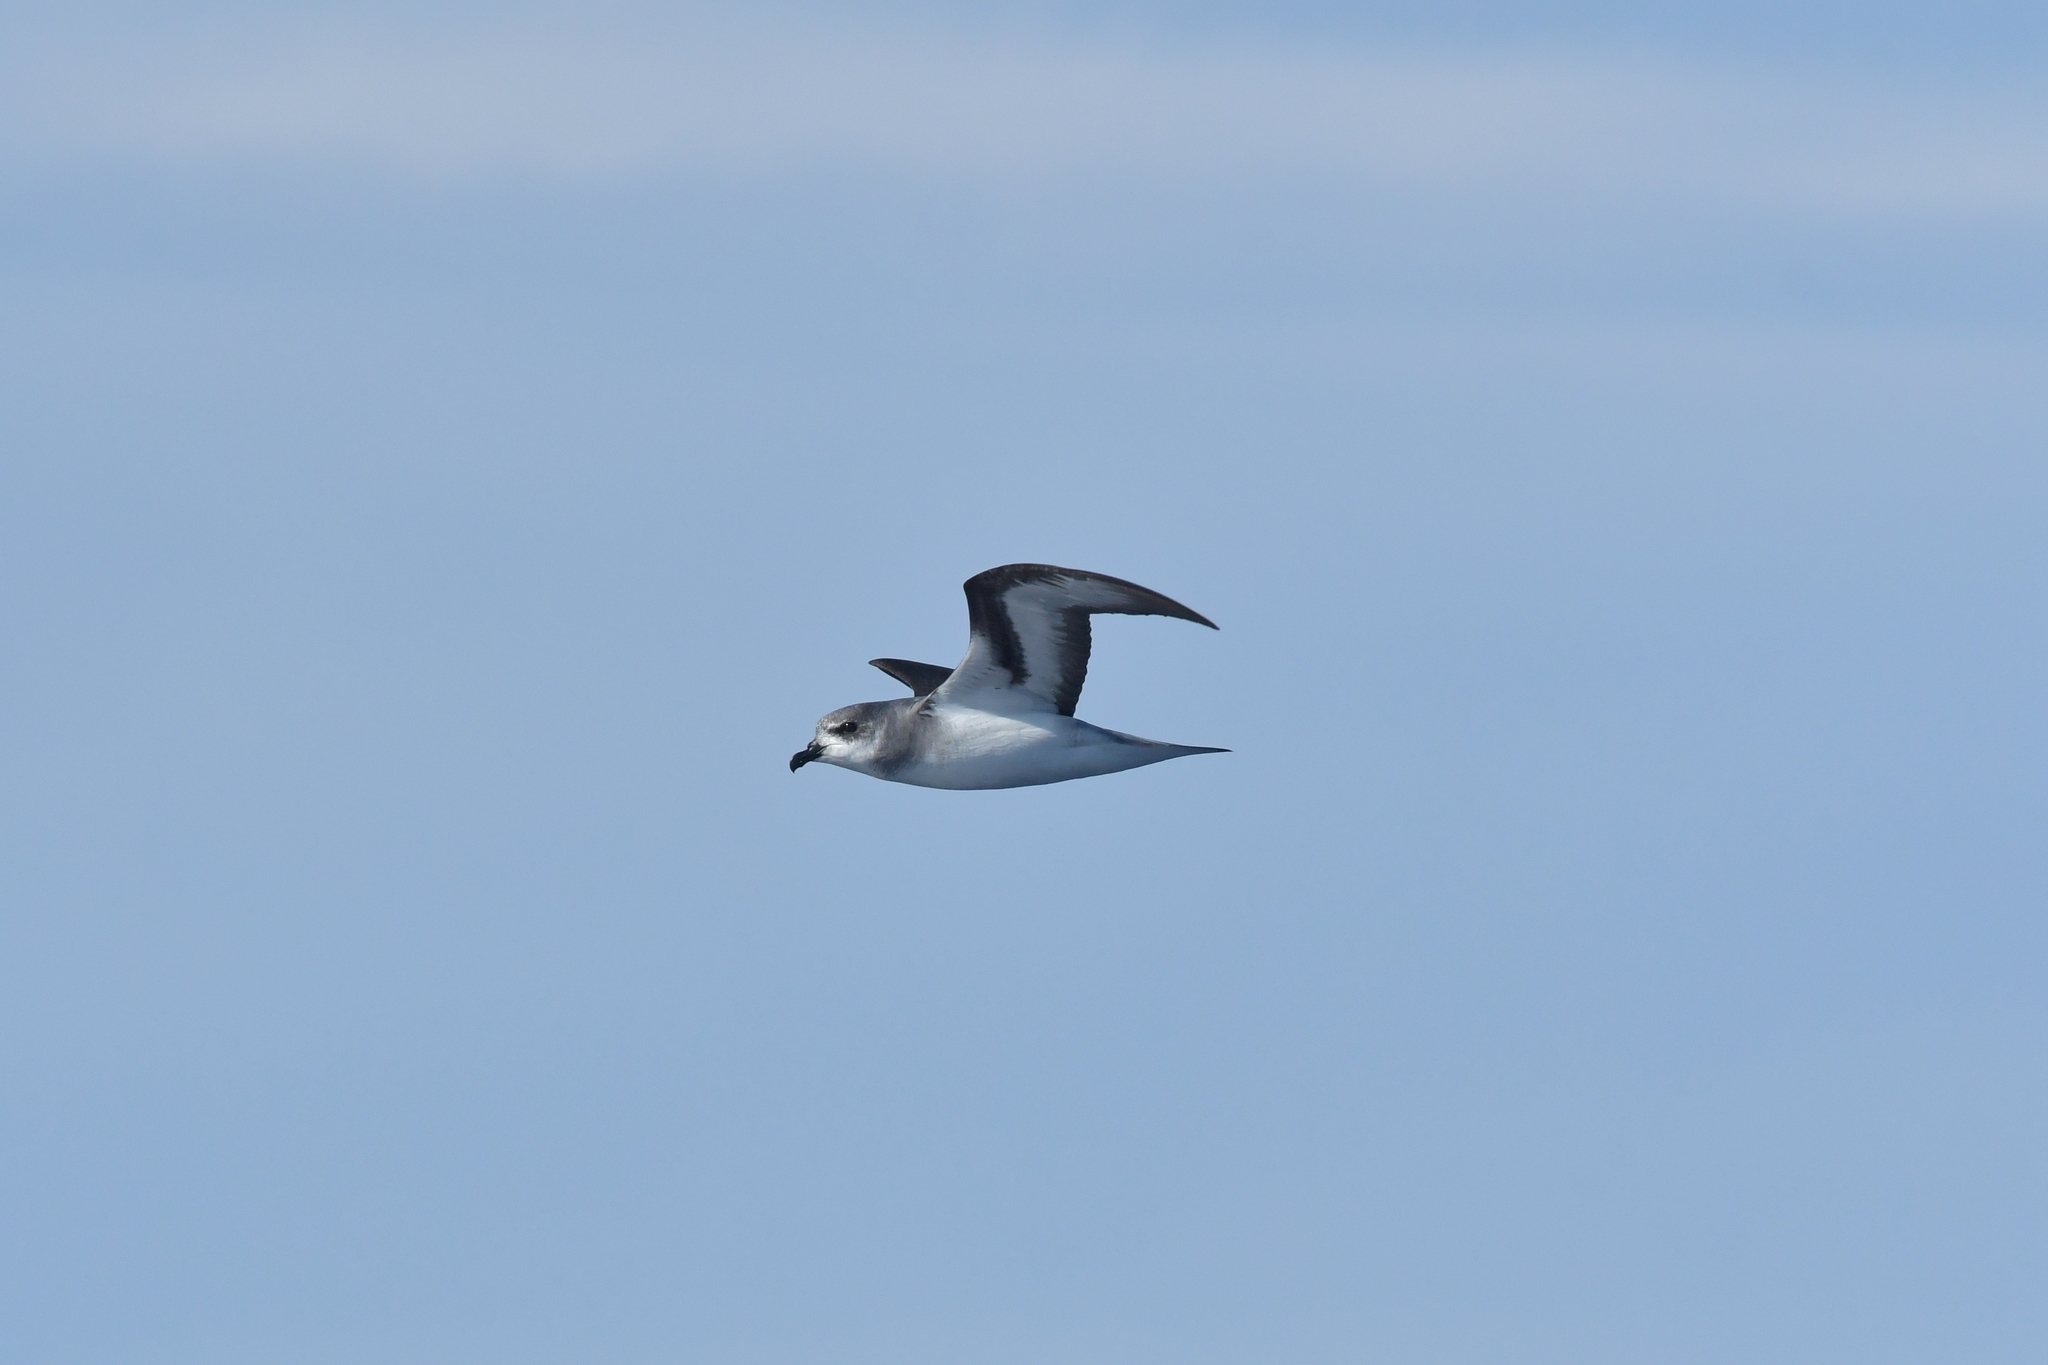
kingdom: Animalia
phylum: Chordata
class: Aves
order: Procellariiformes
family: Procellariidae
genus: Pterodroma
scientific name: Pterodroma nigripennis
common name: Black-winged petrel
